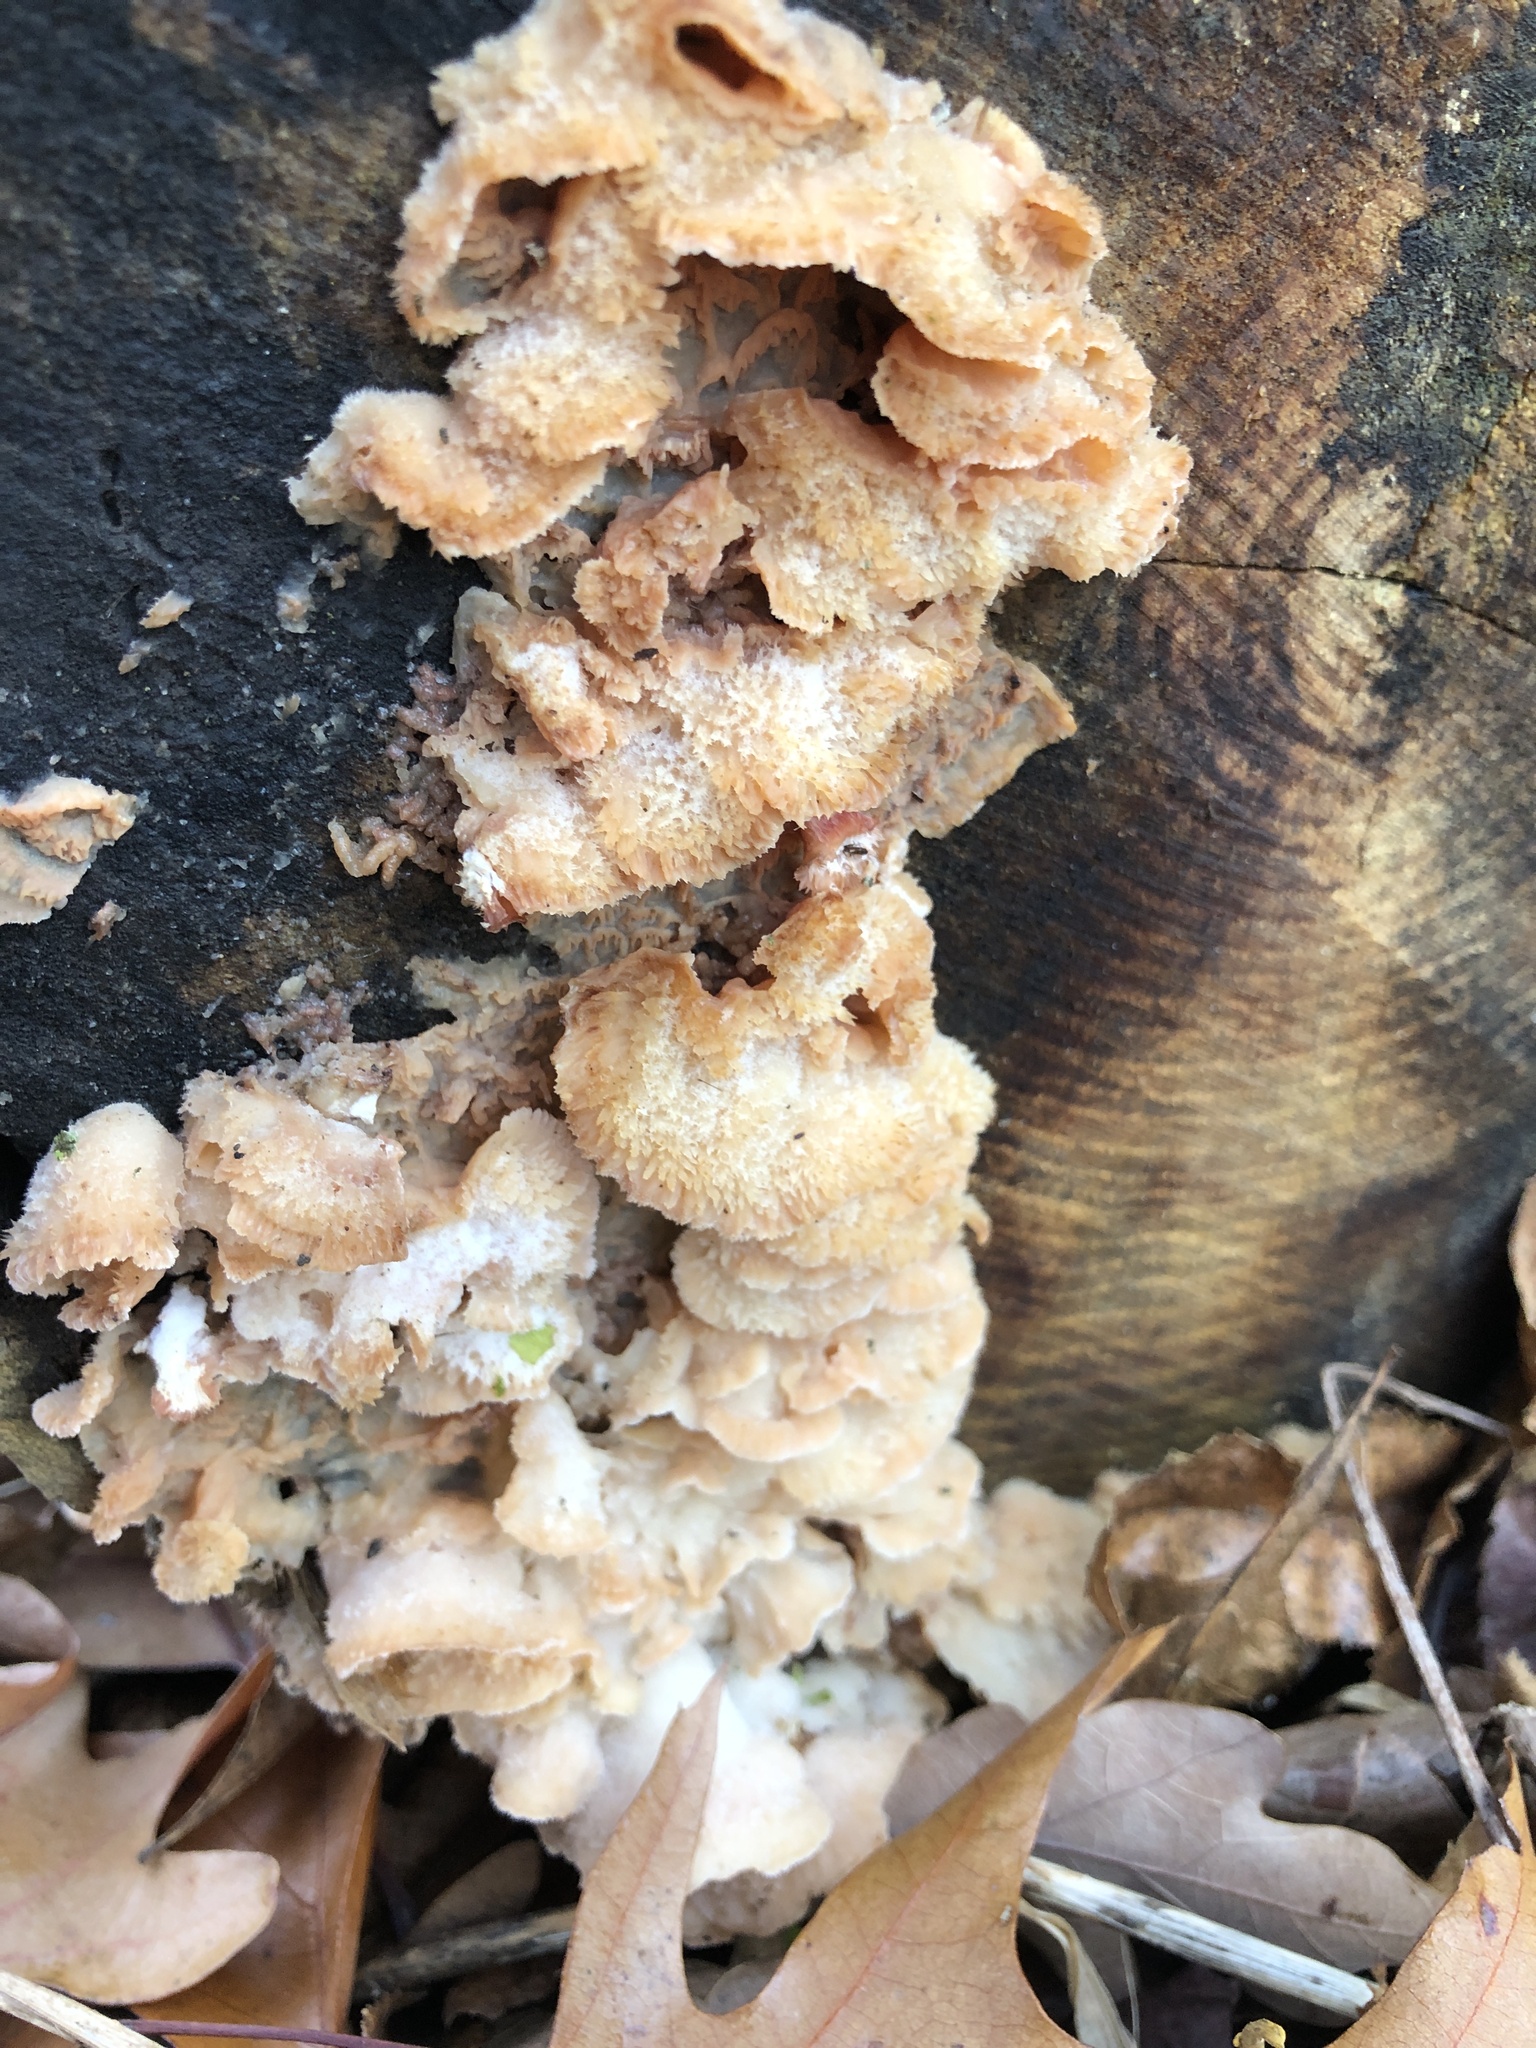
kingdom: Fungi
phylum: Basidiomycota
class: Agaricomycetes
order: Polyporales
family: Meruliaceae
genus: Phlebia
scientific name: Phlebia tremellosa
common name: Jelly rot
